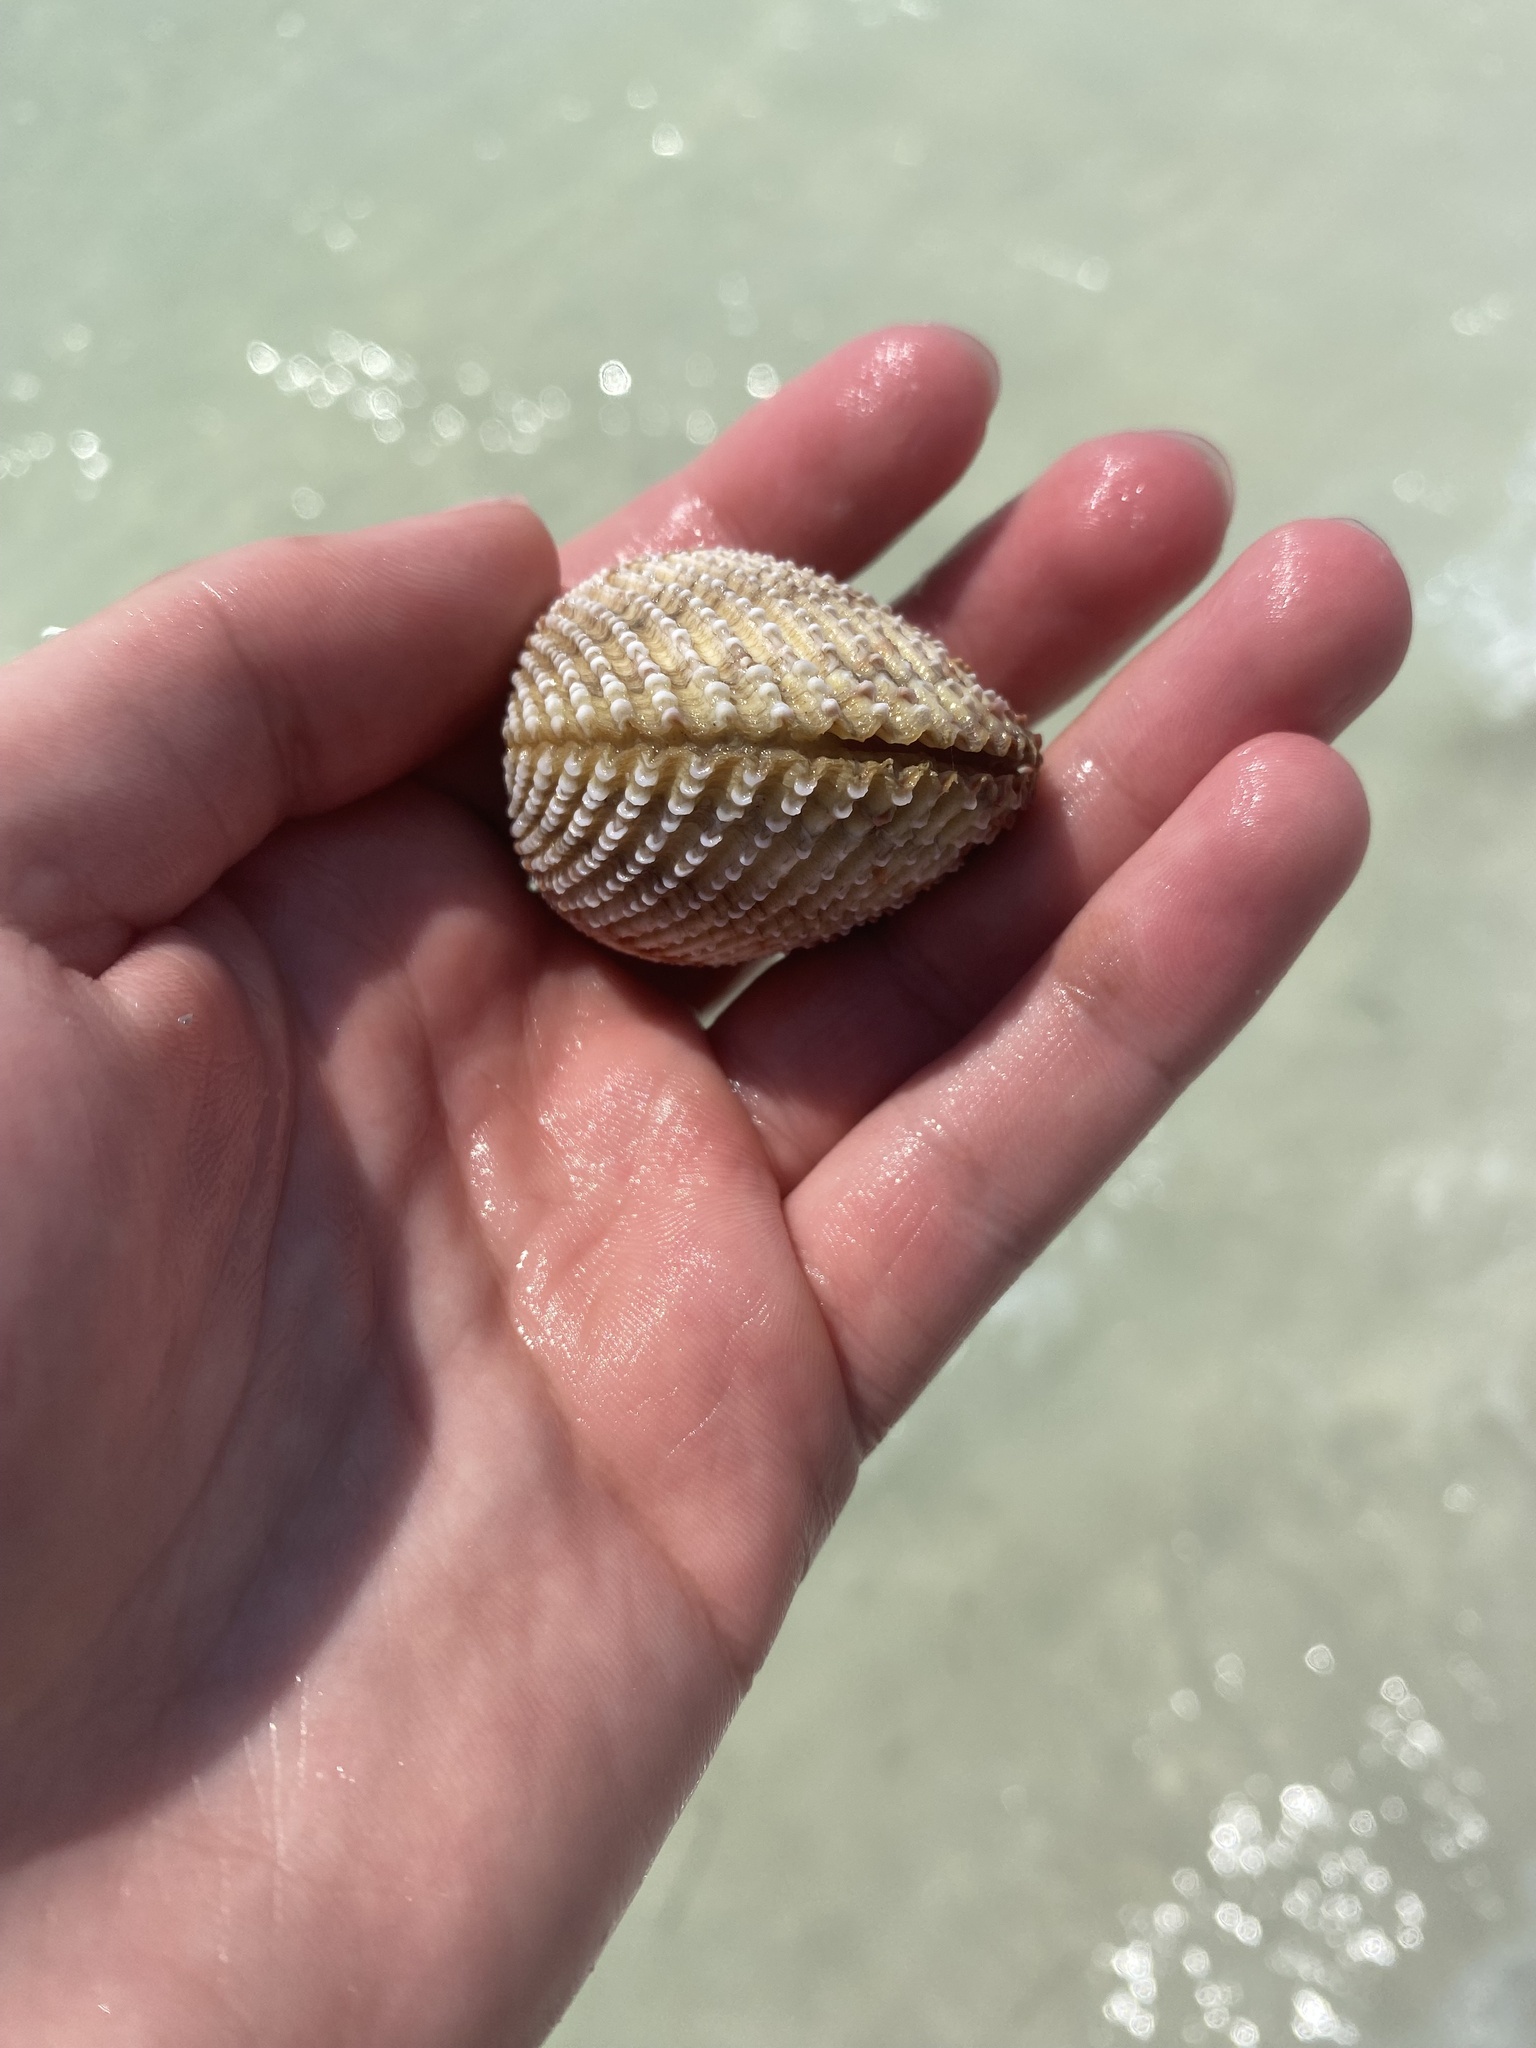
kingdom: Animalia
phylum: Mollusca
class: Bivalvia
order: Cardiida
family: Cardiidae
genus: Trachycardium
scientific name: Trachycardium egmontianum
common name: Florida pricklycockle
